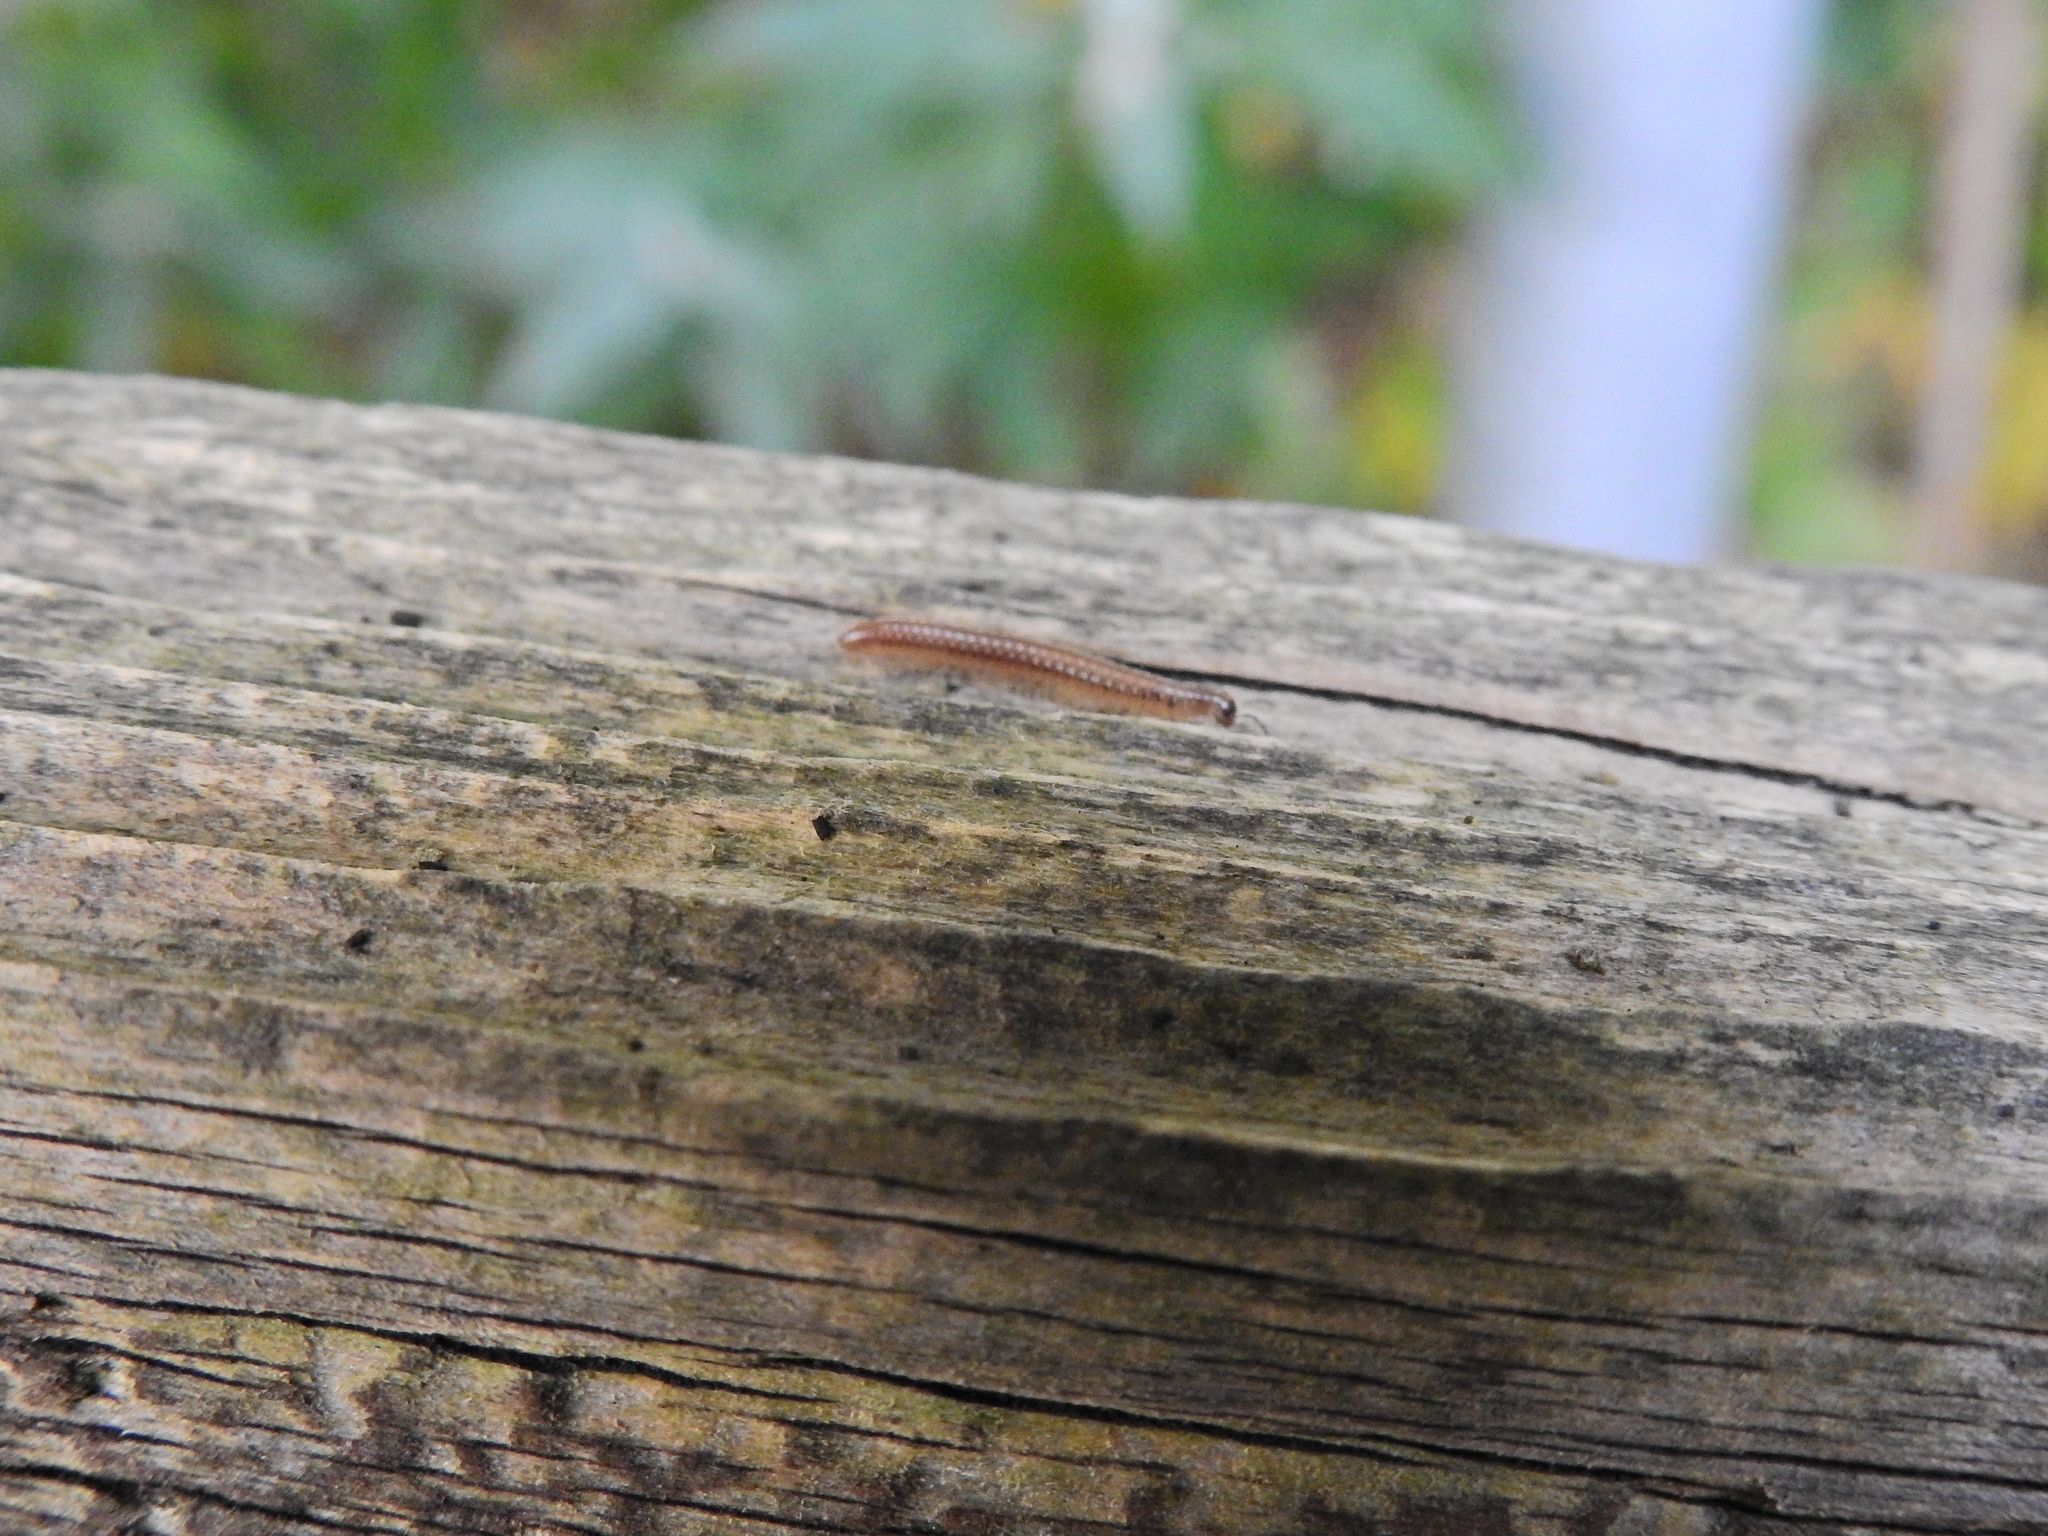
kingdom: Animalia
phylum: Arthropoda
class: Diplopoda
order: Julida
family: Julidae
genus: Tachypodoiulus
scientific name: Tachypodoiulus niger
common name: White-legged snake millipede
